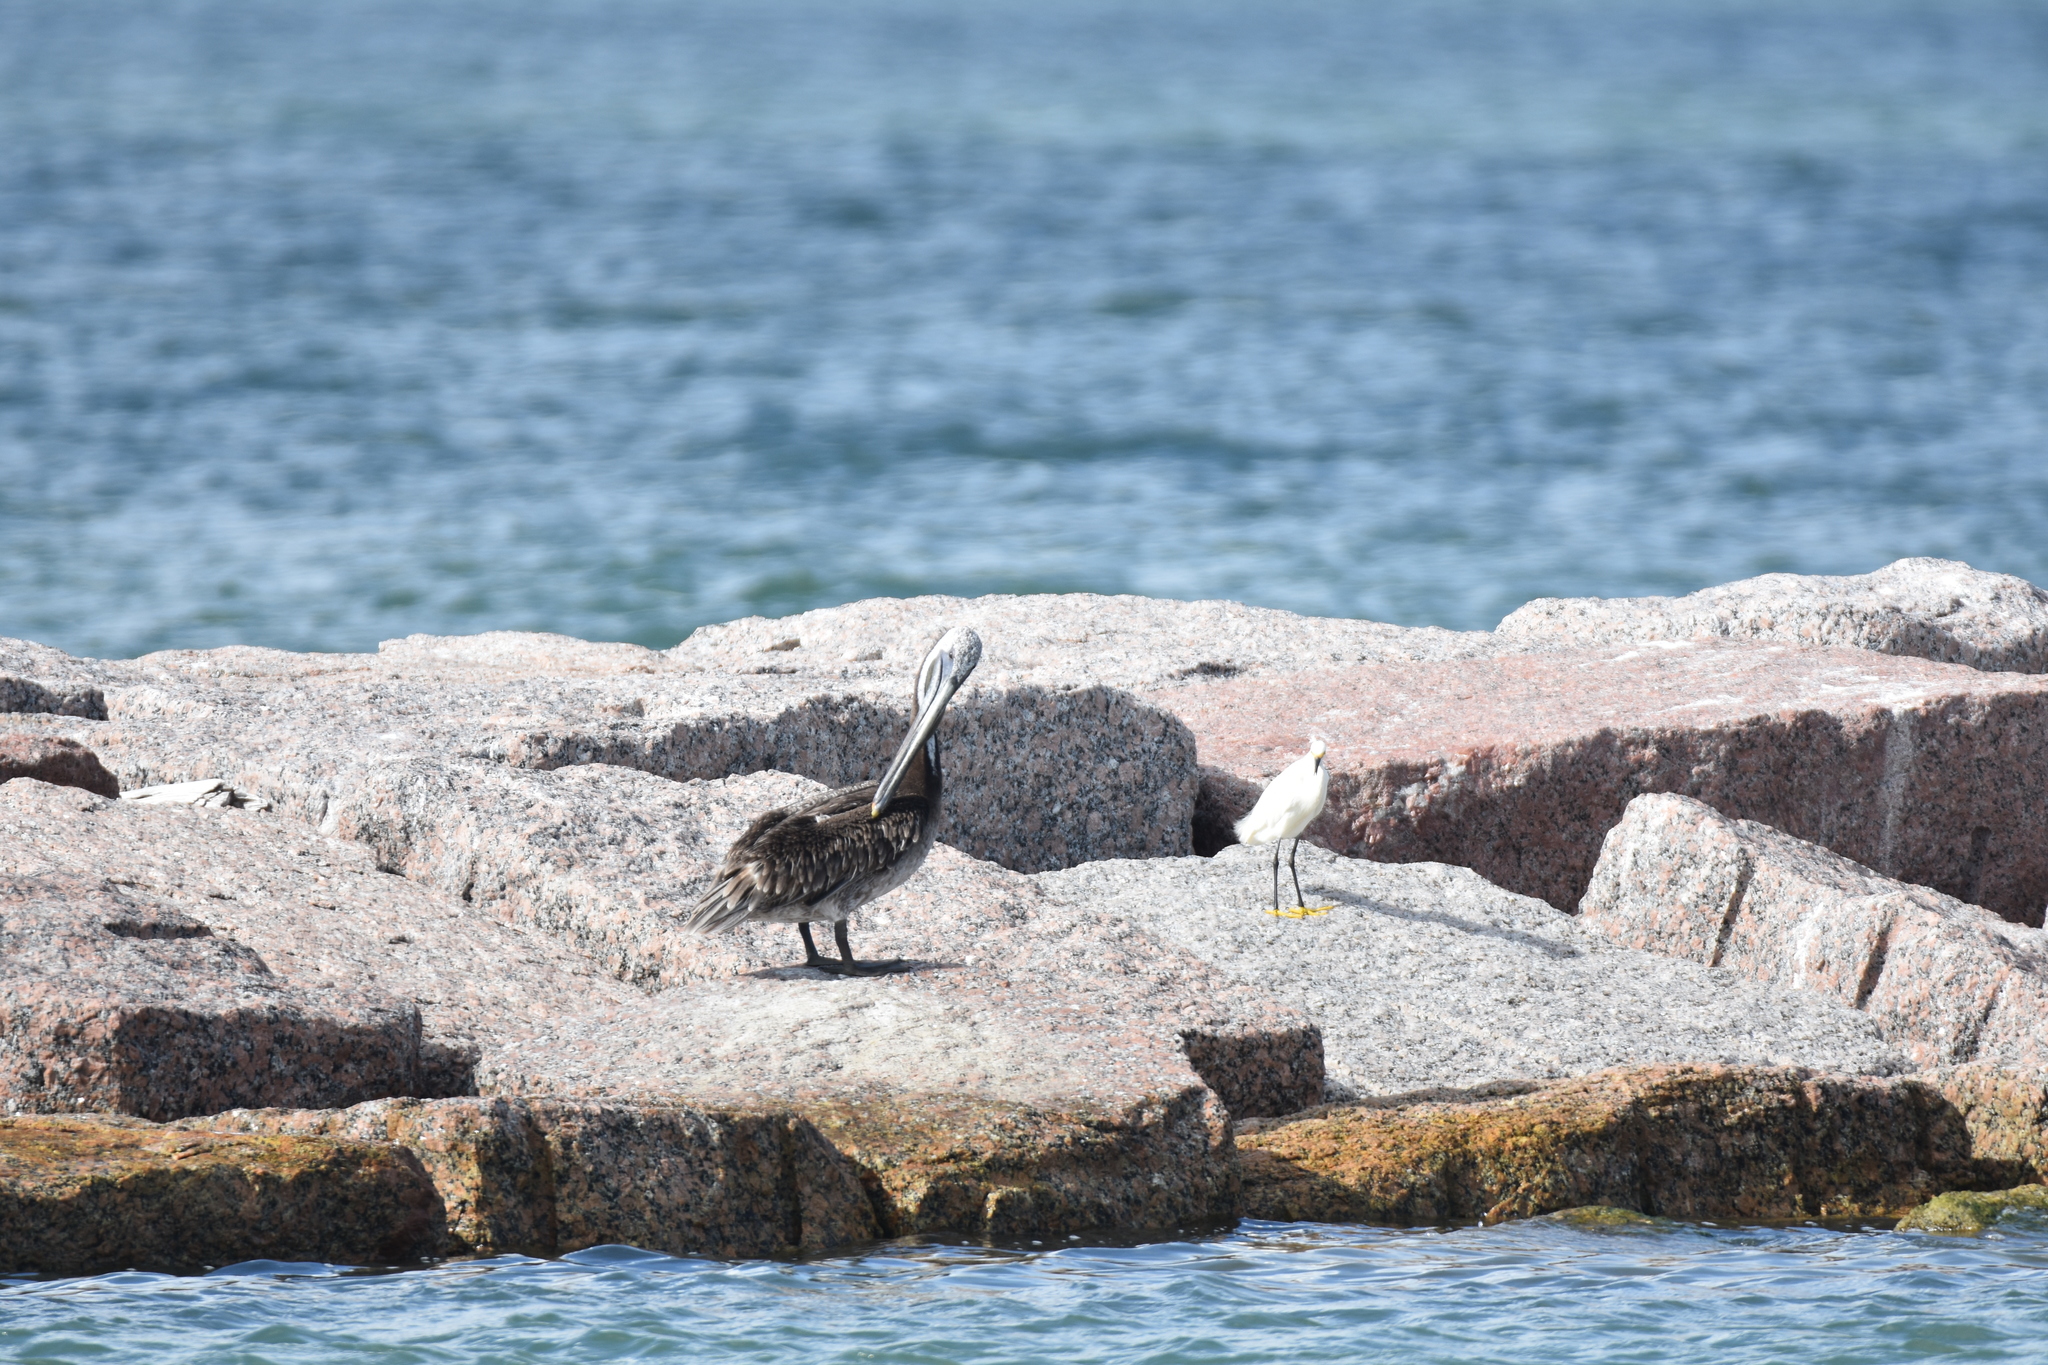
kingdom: Animalia
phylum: Chordata
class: Aves
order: Pelecaniformes
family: Ardeidae
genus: Egretta
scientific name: Egretta thula
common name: Snowy egret
